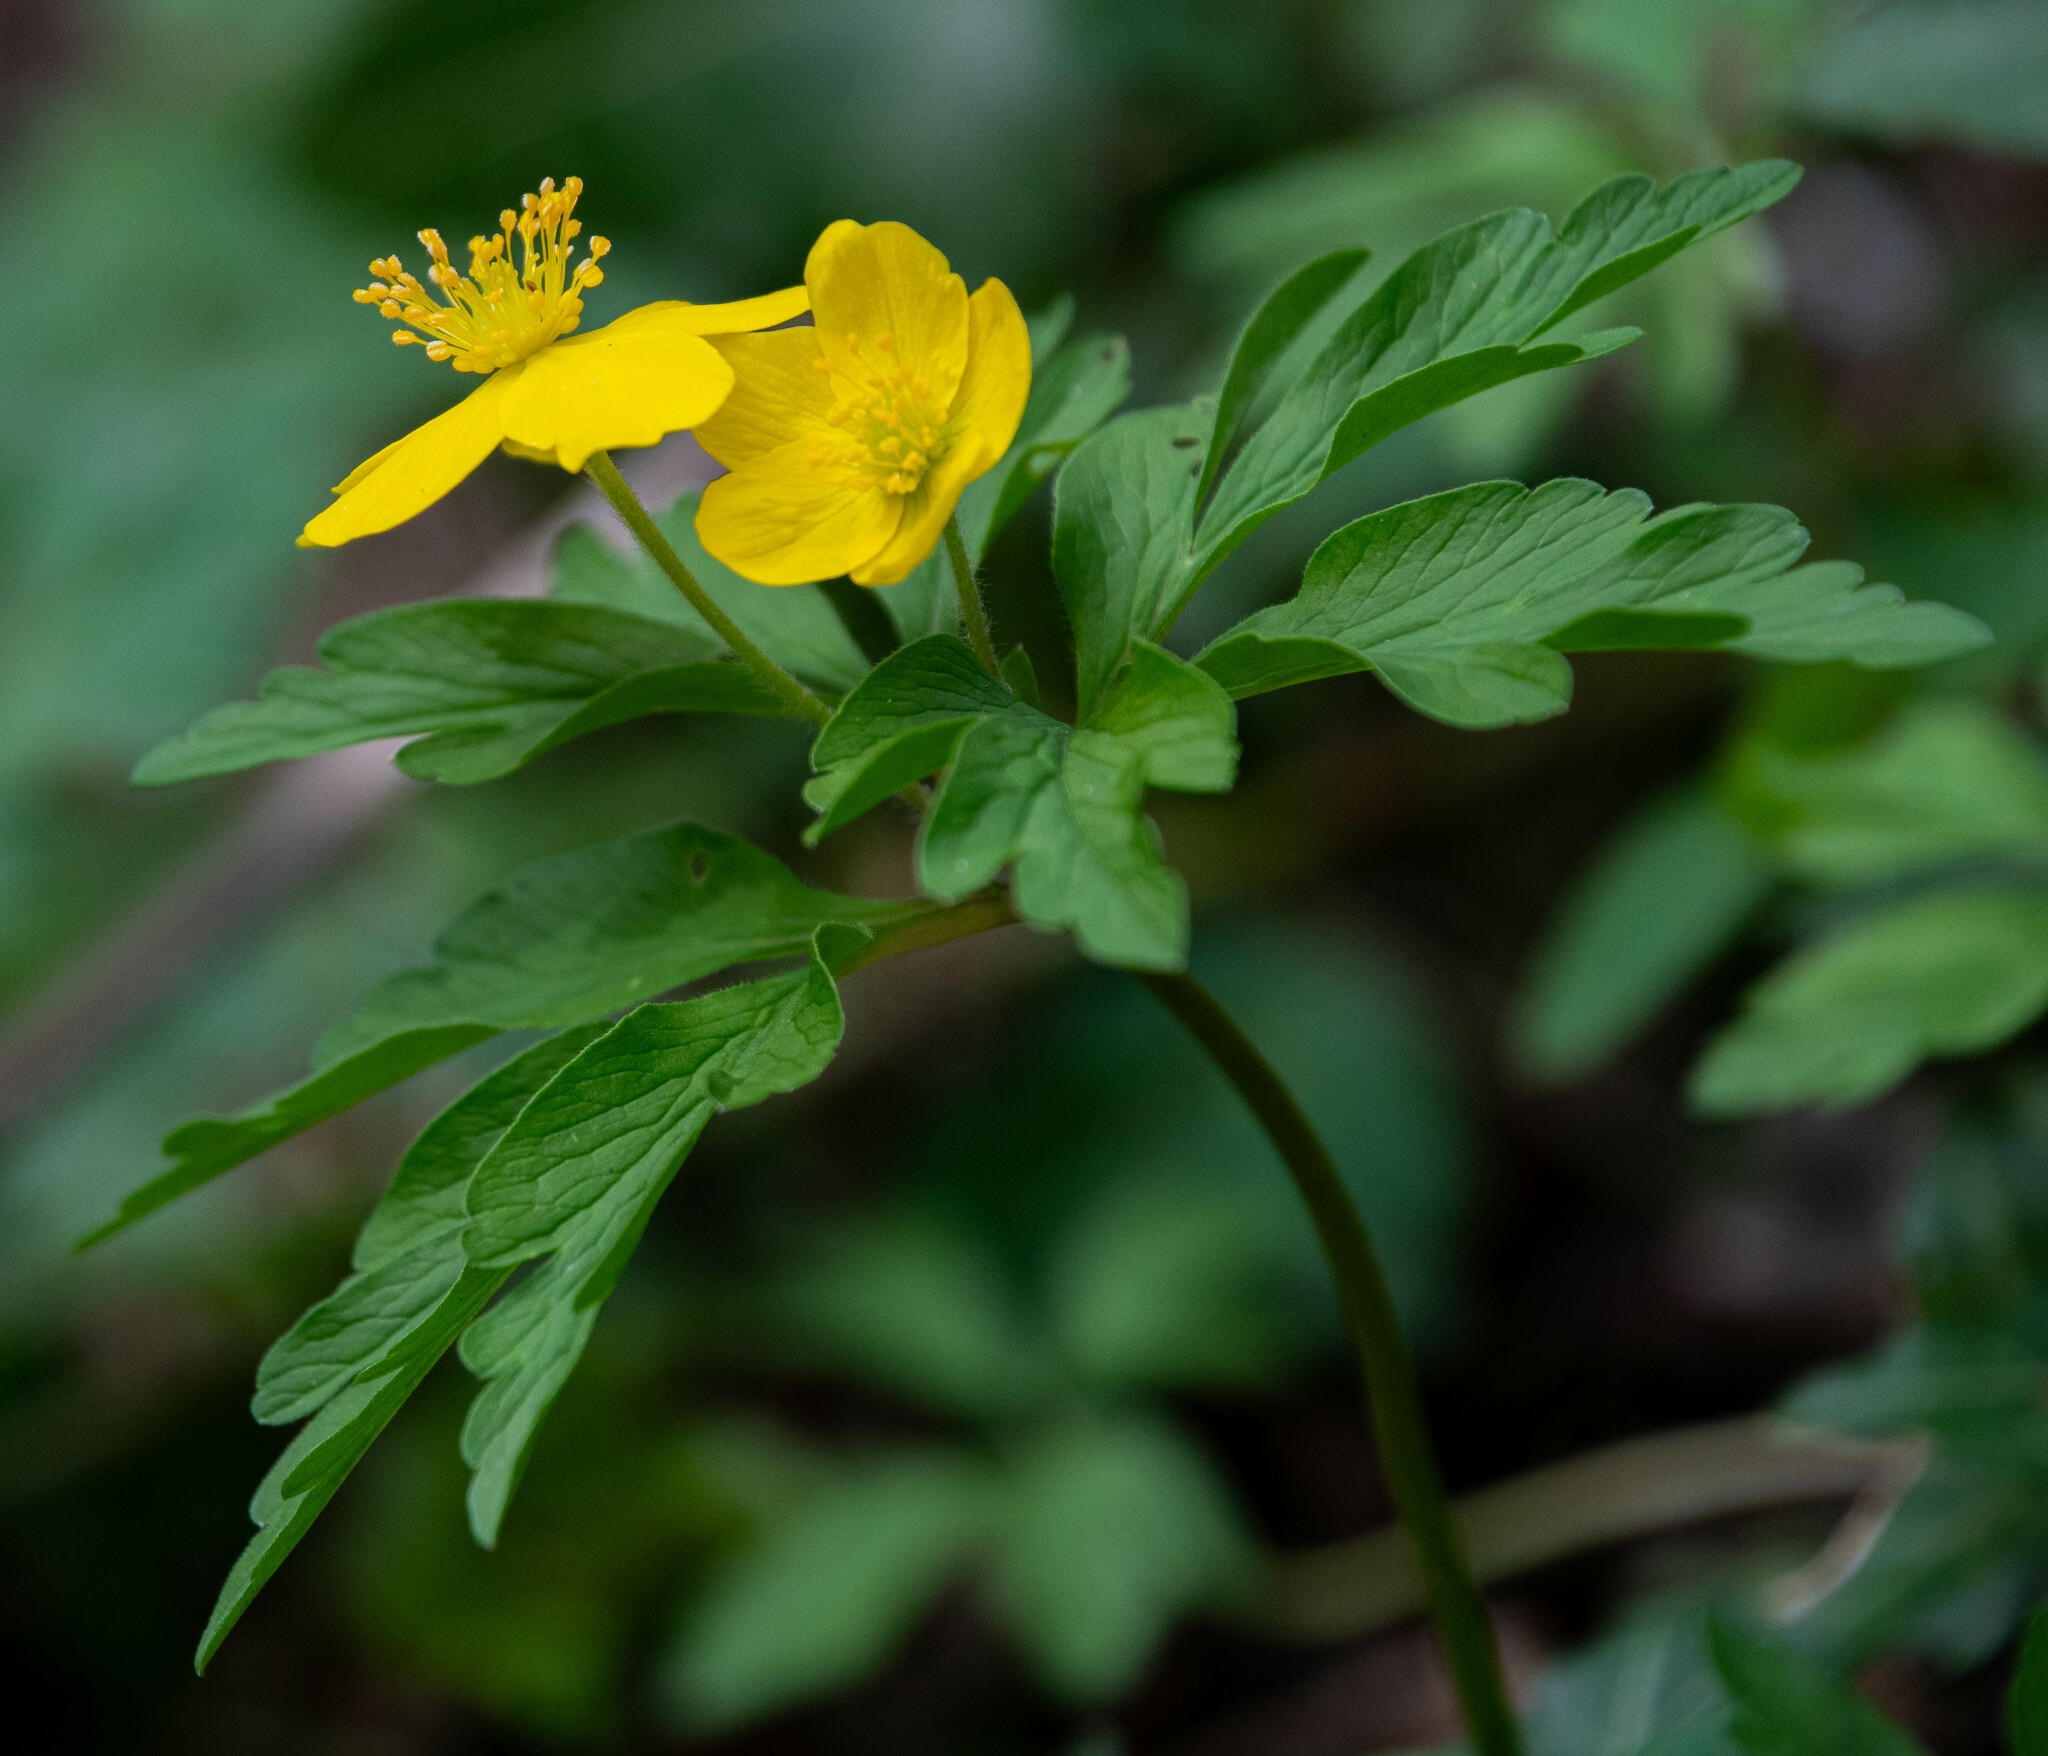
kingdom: Plantae
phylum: Tracheophyta
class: Magnoliopsida
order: Ranunculales
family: Ranunculaceae
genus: Anemone
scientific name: Anemone ranunculoides
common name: Yellow anemone
